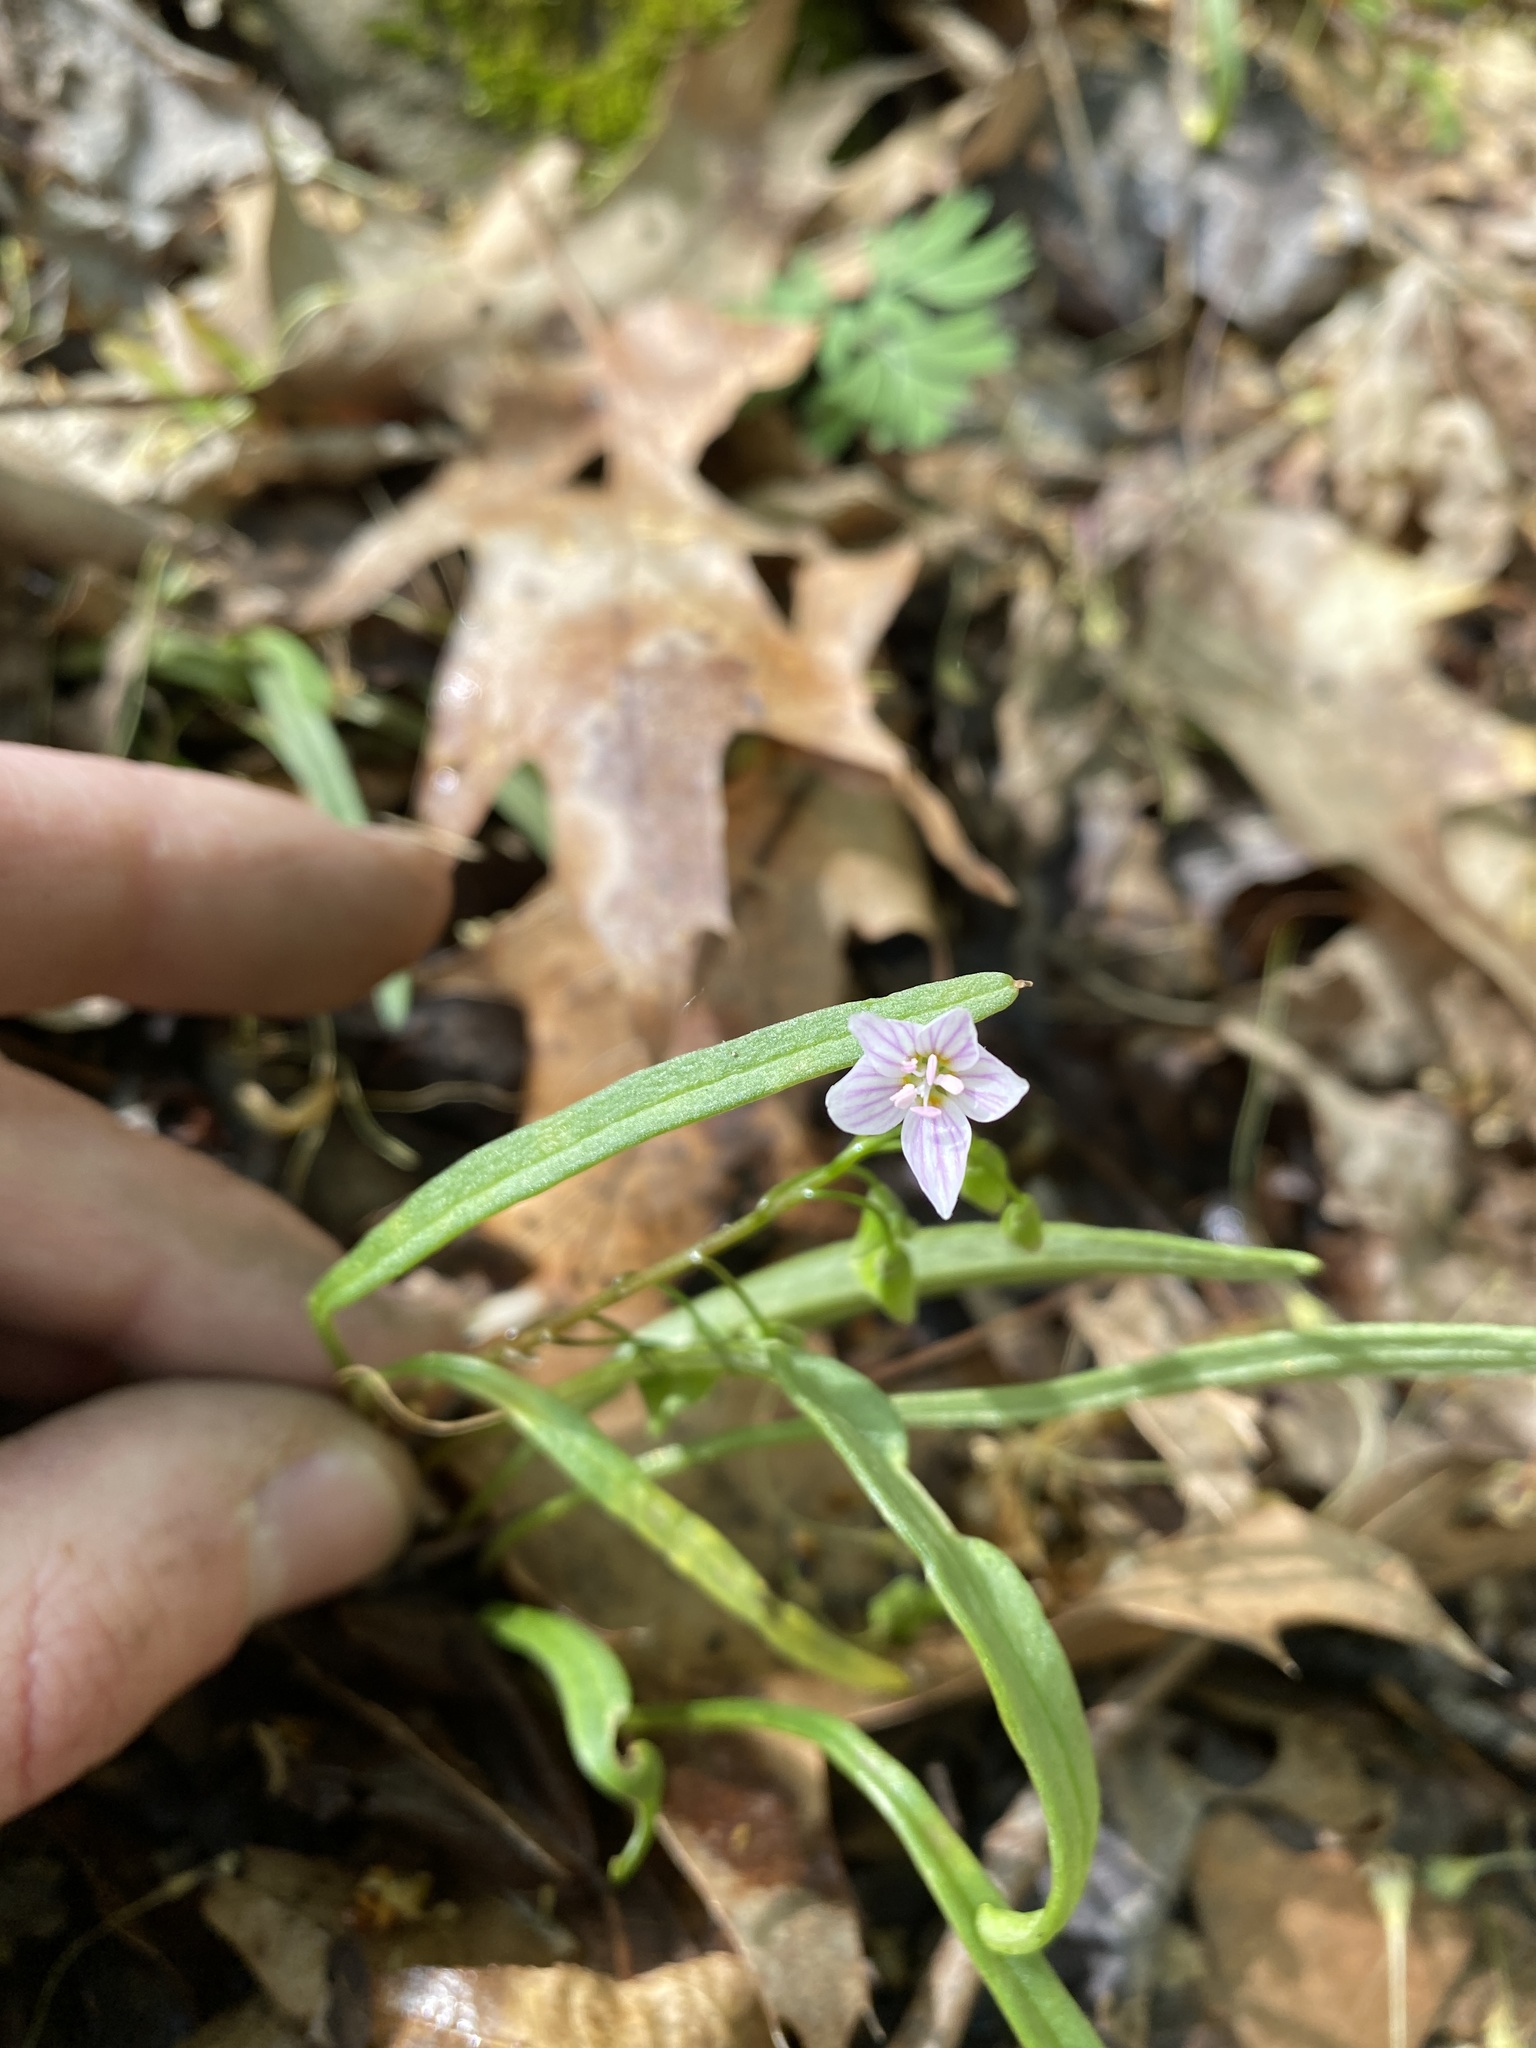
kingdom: Plantae
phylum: Tracheophyta
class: Magnoliopsida
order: Caryophyllales
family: Montiaceae
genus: Claytonia
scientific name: Claytonia virginica
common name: Virginia springbeauty
